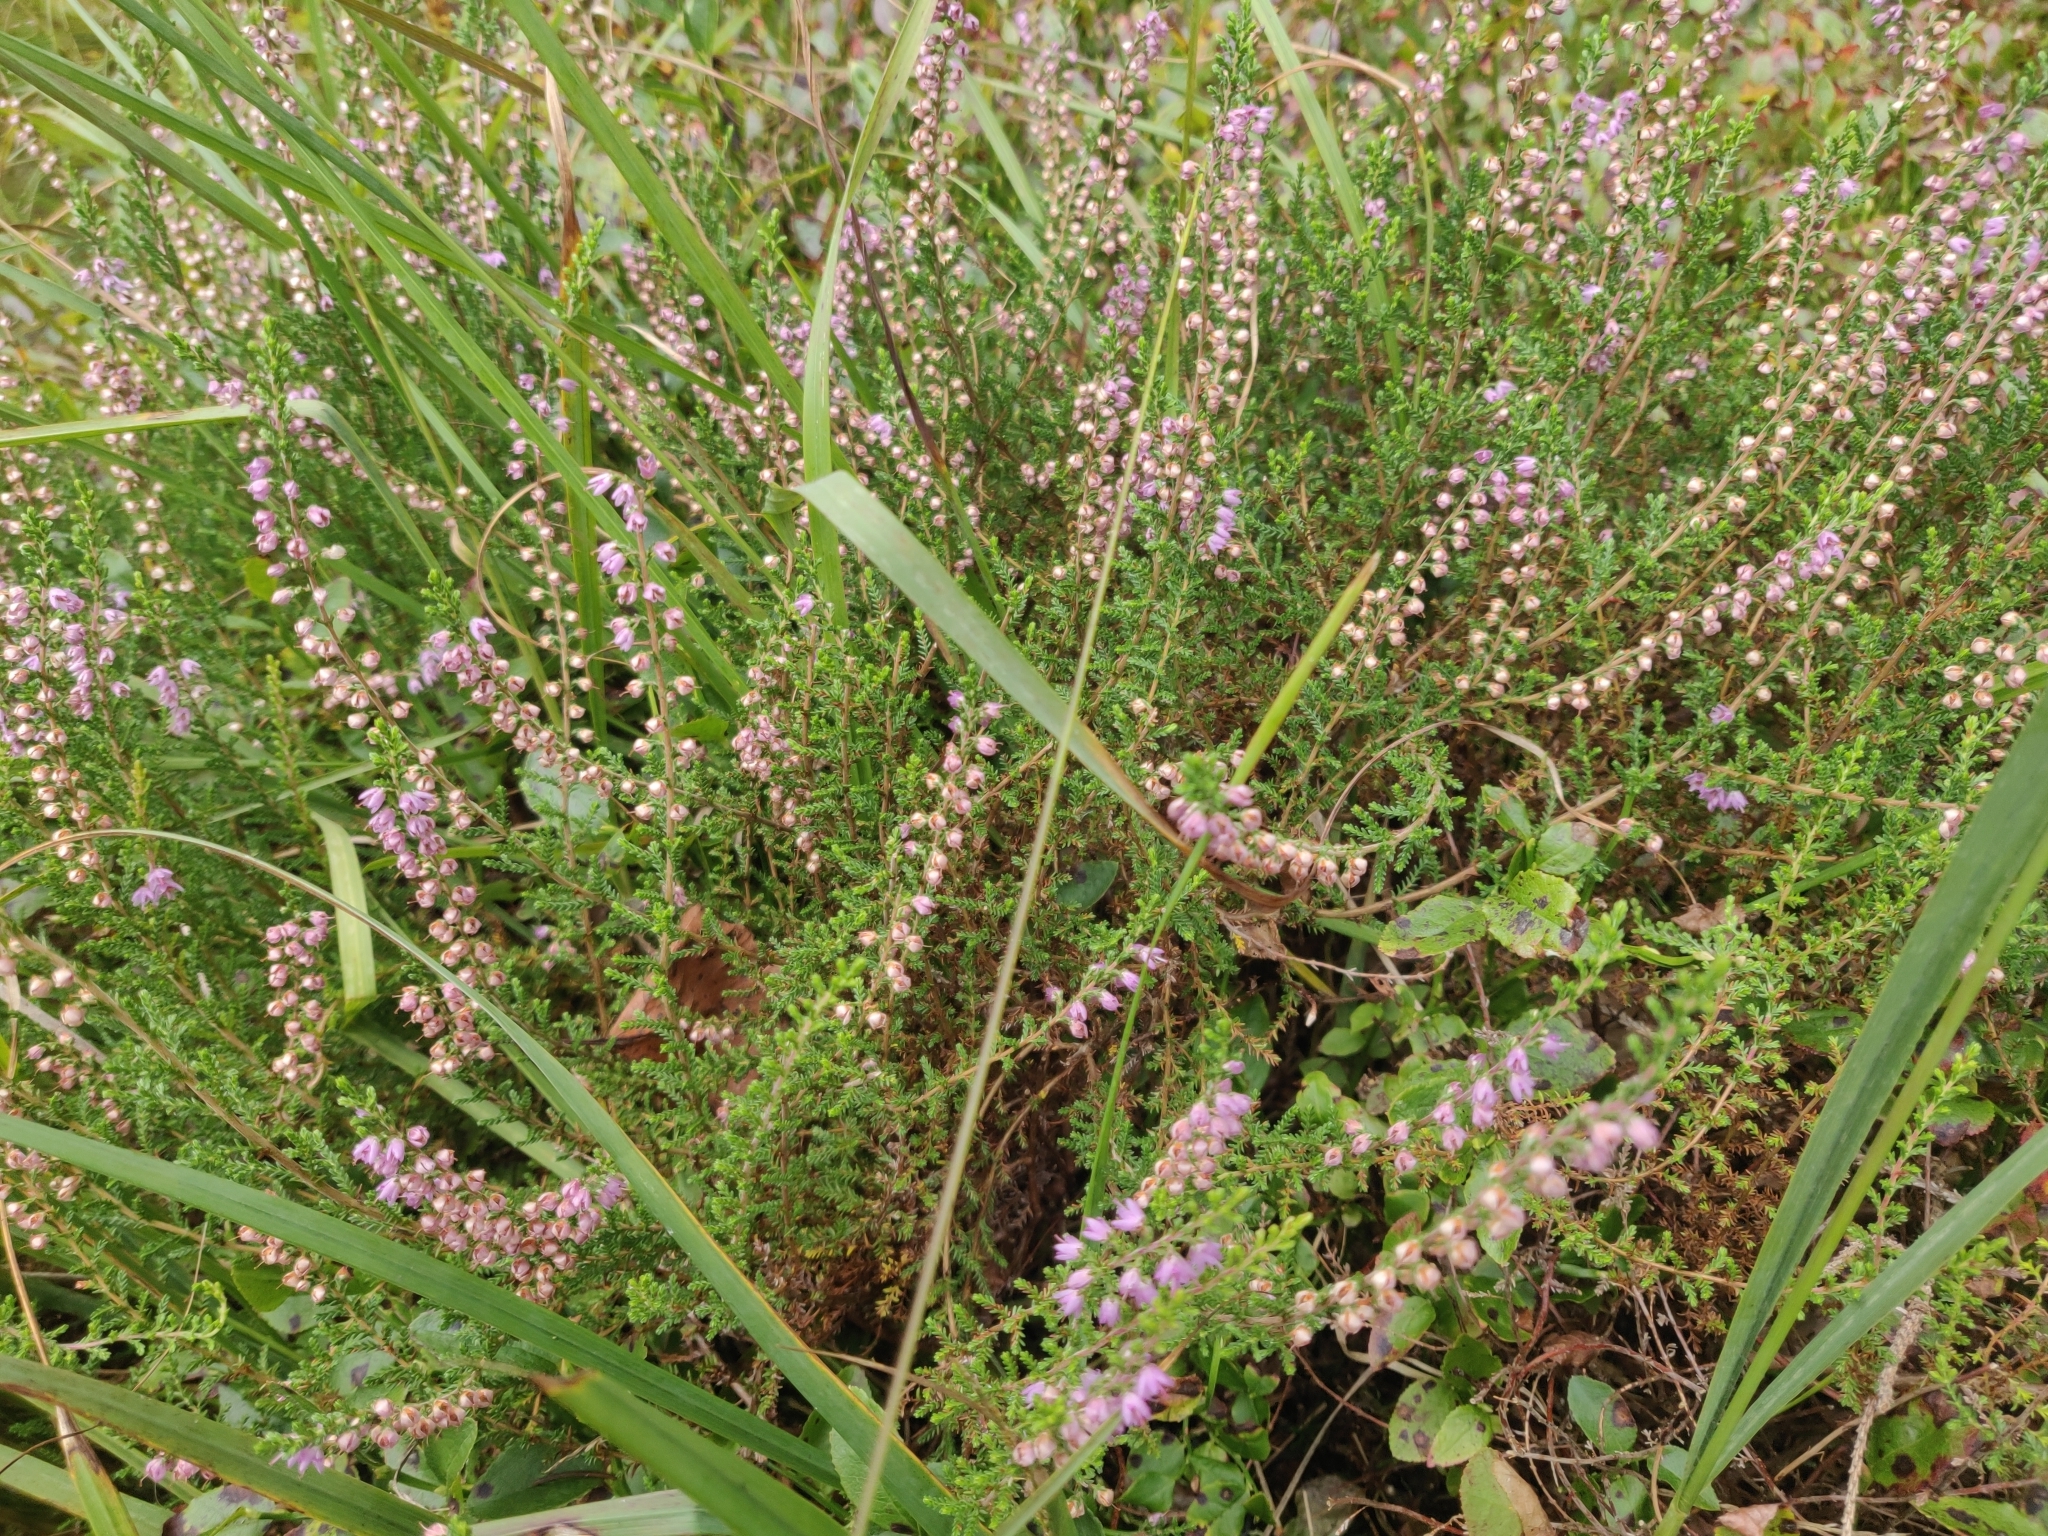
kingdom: Plantae
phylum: Tracheophyta
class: Magnoliopsida
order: Ericales
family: Ericaceae
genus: Calluna
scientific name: Calluna vulgaris
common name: Heather
